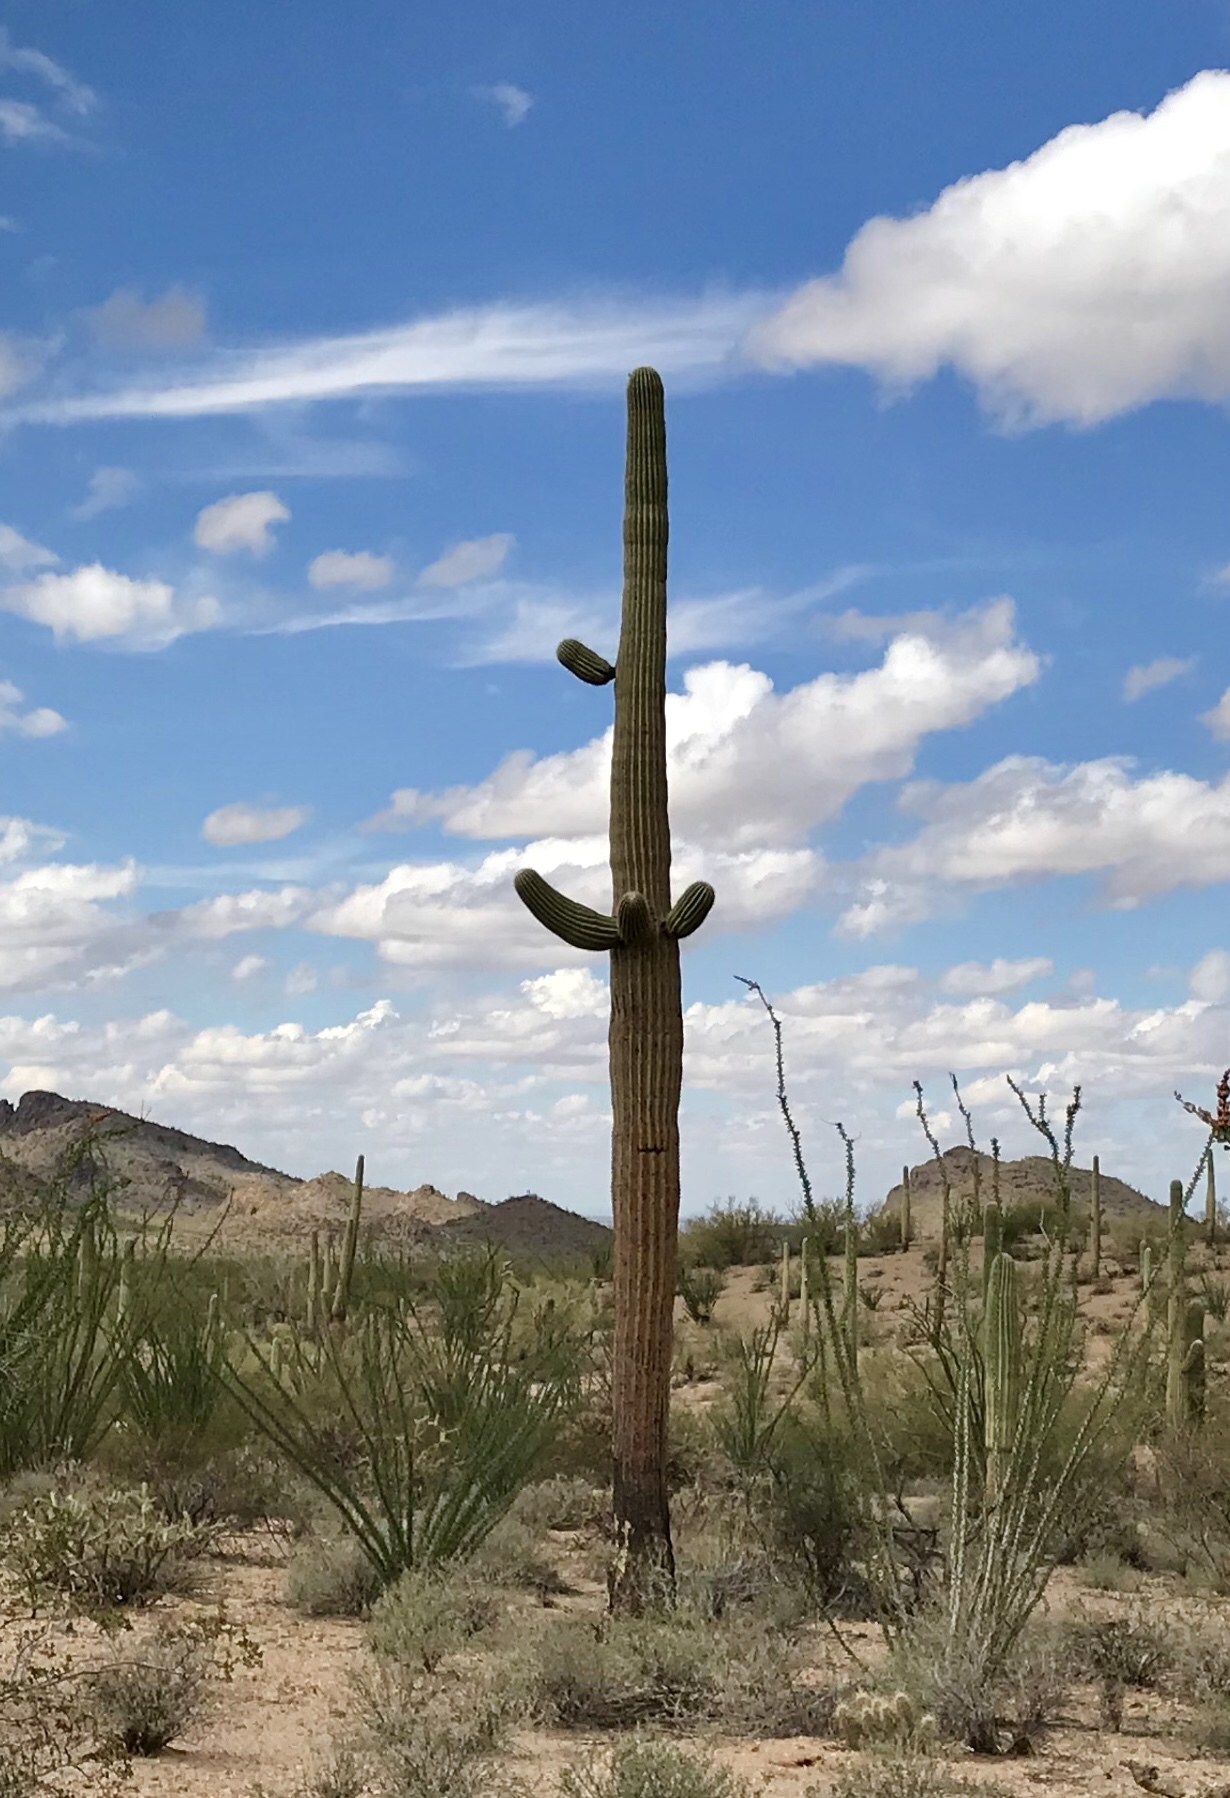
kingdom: Plantae
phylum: Tracheophyta
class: Magnoliopsida
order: Caryophyllales
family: Cactaceae
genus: Carnegiea
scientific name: Carnegiea gigantea
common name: Saguaro
